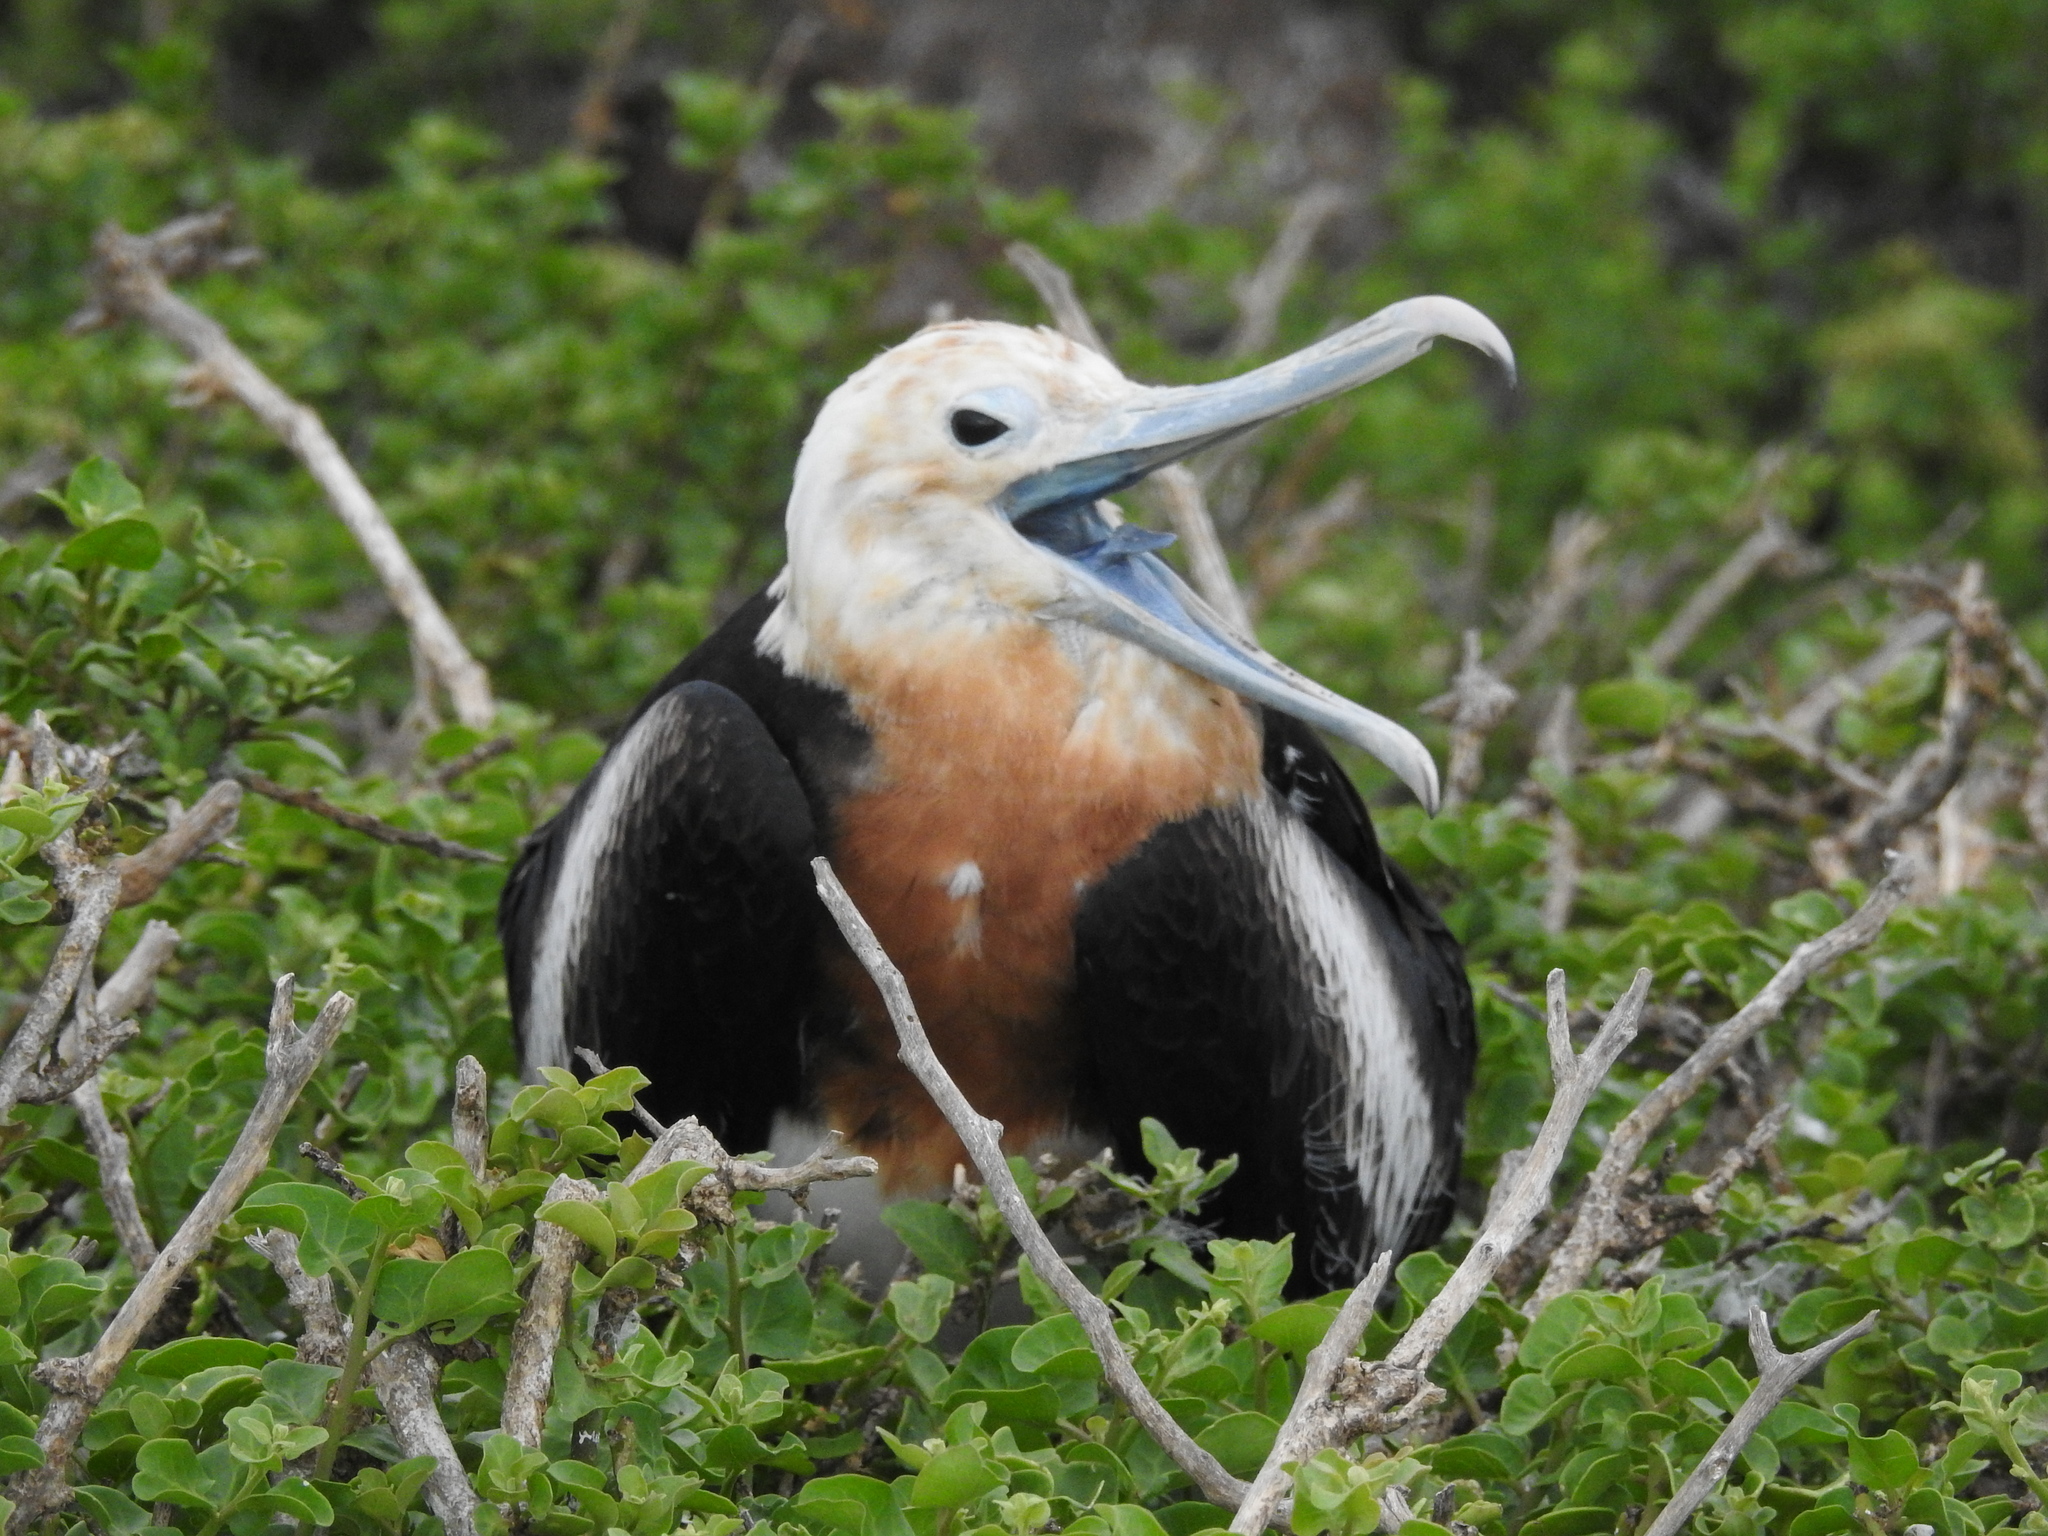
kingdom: Animalia
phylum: Chordata
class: Aves
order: Suliformes
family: Fregatidae
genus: Fregata
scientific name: Fregata minor
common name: Great frigatebird
